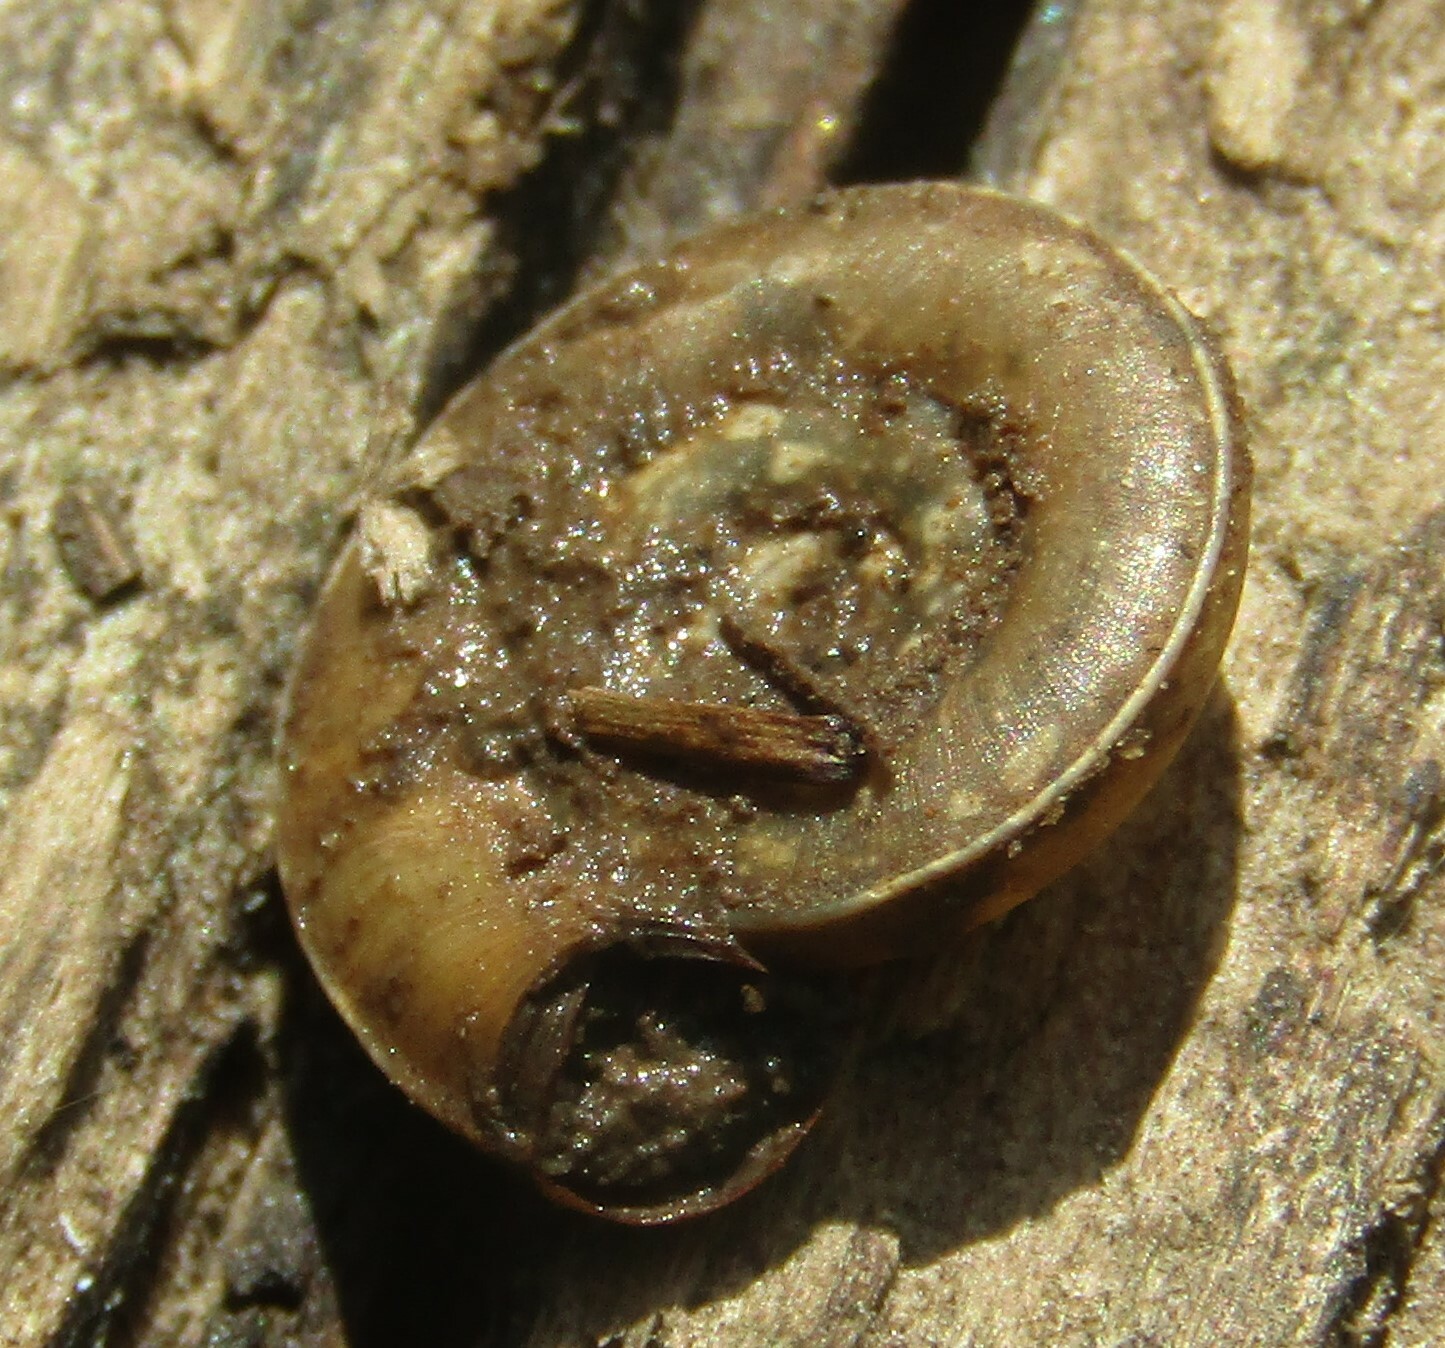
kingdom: Animalia
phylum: Mollusca
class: Gastropoda
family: Planorbidae
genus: Planorbis
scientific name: Planorbis planorbis
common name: Margined ramshorn
